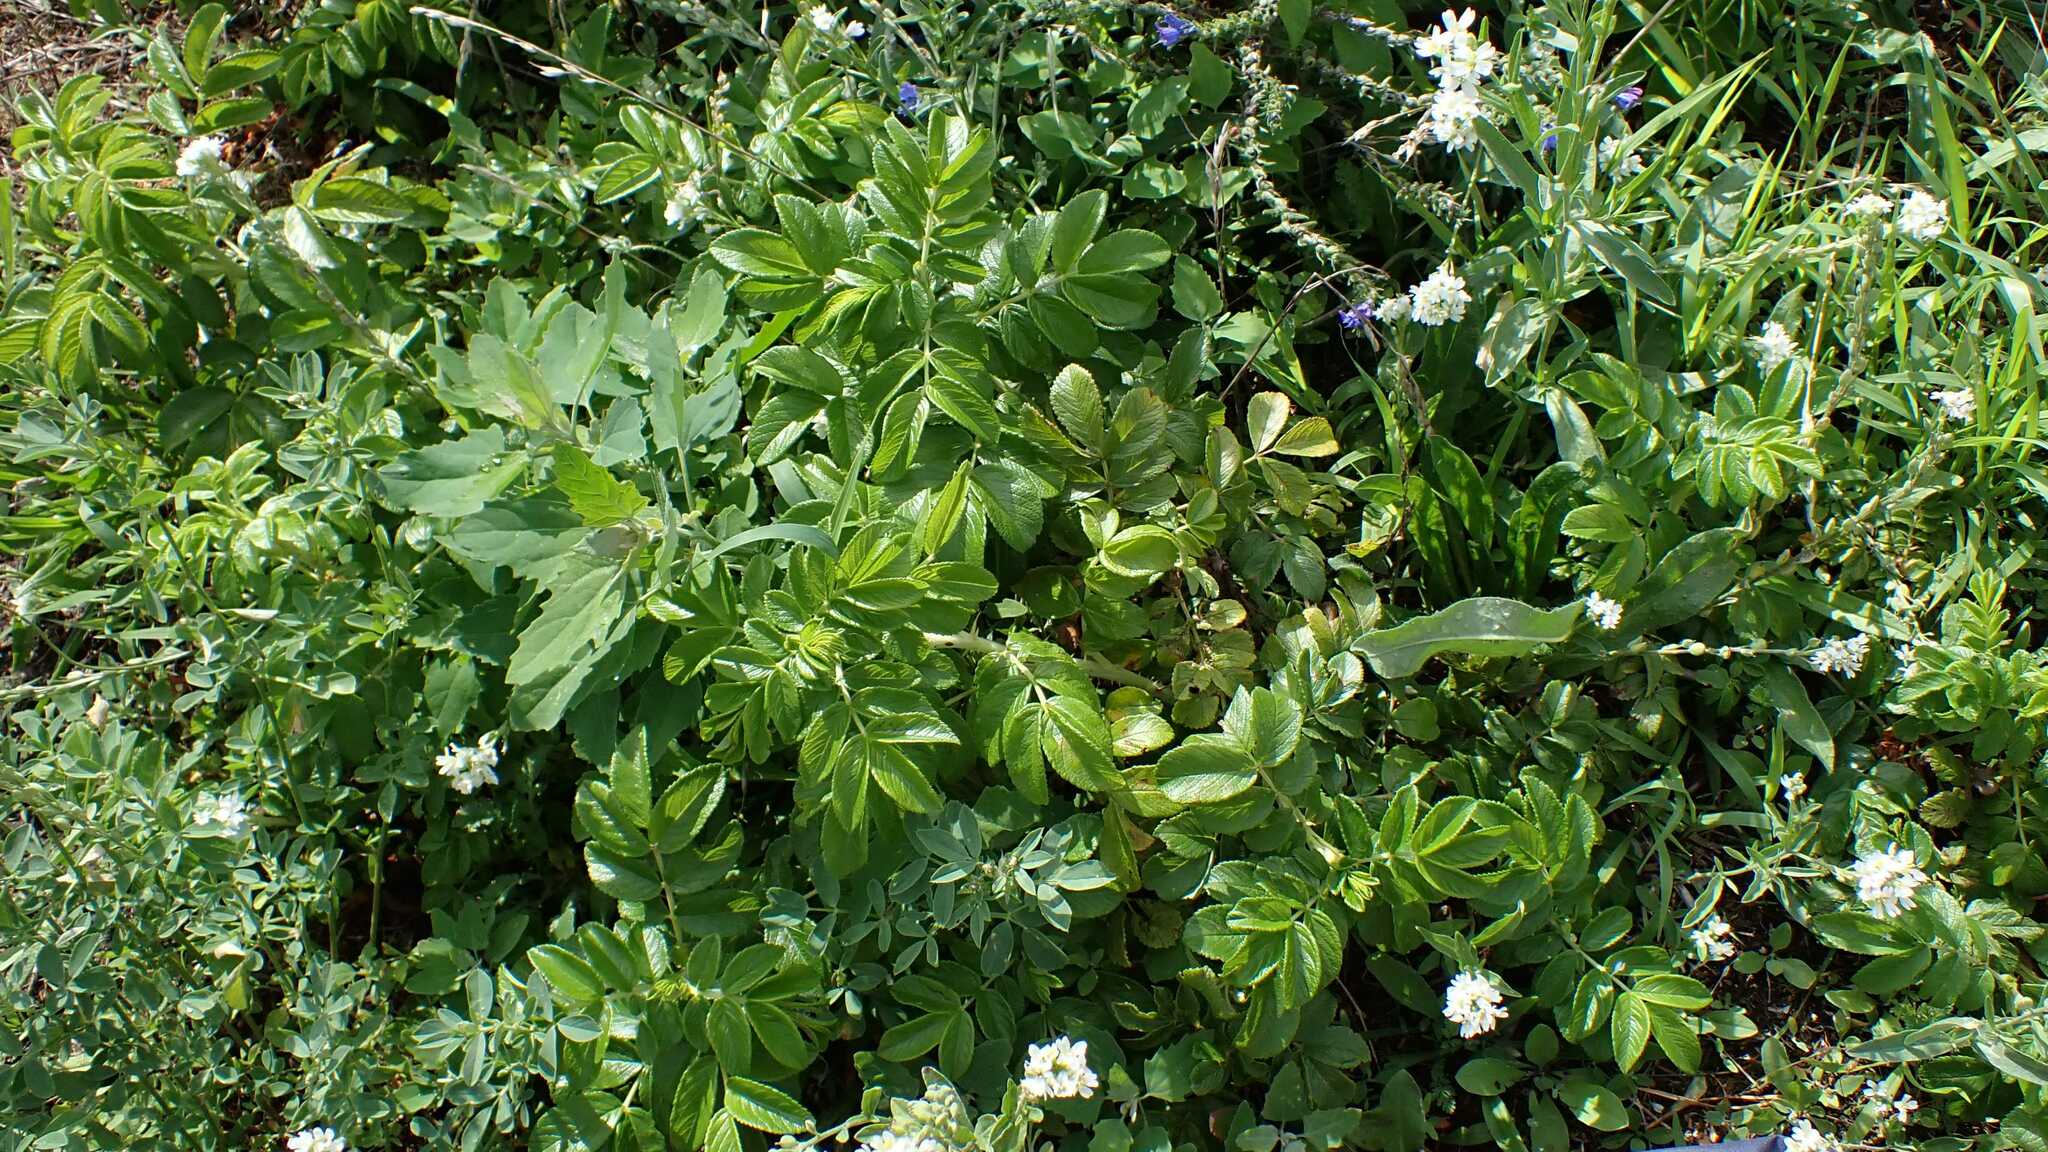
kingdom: Plantae
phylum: Tracheophyta
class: Magnoliopsida
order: Rosales
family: Rosaceae
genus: Rosa
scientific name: Rosa rugosa
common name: Japanese rose
